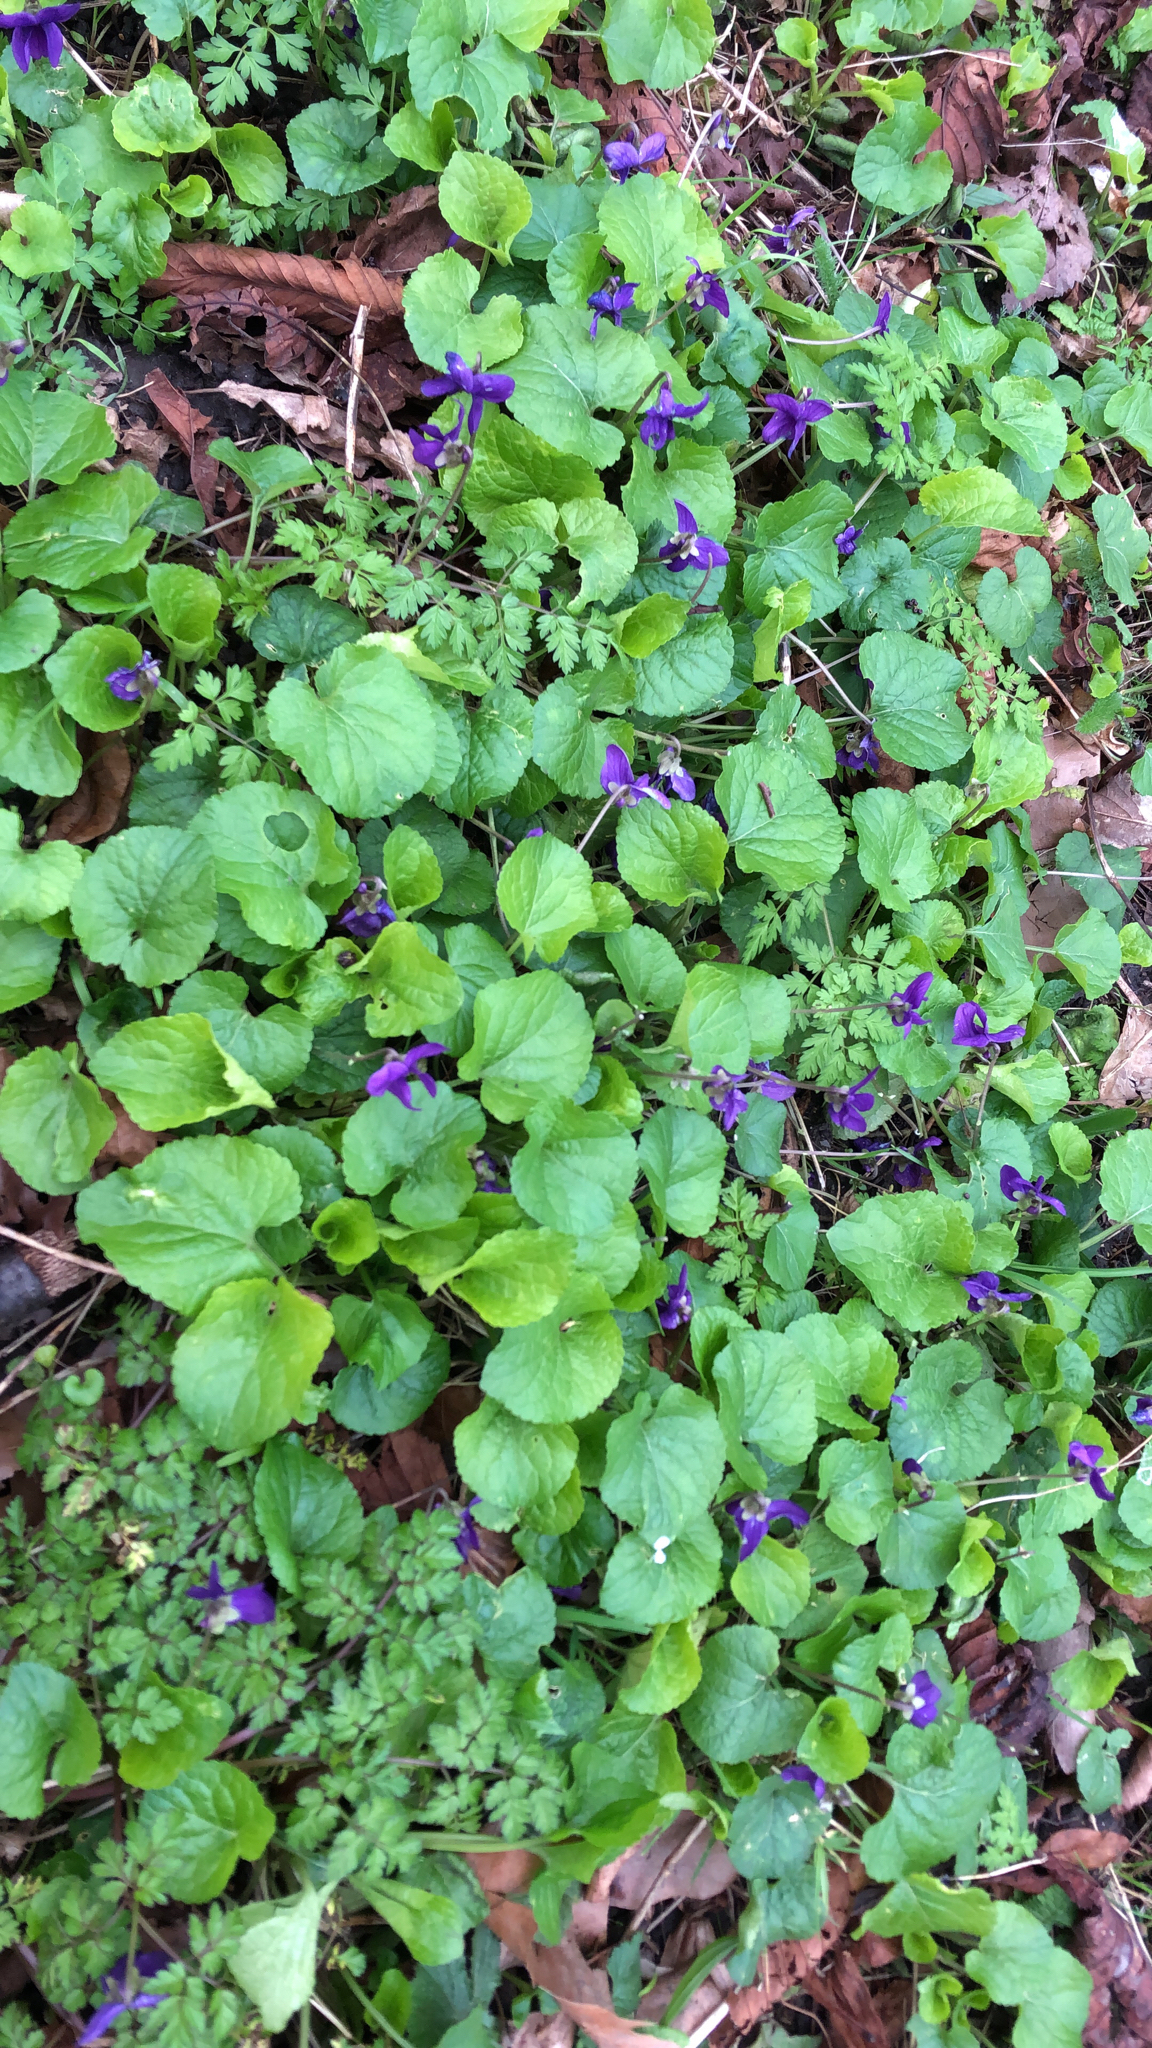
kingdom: Plantae
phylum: Tracheophyta
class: Magnoliopsida
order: Malpighiales
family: Violaceae
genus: Viola
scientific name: Viola odorata
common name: Sweet violet
